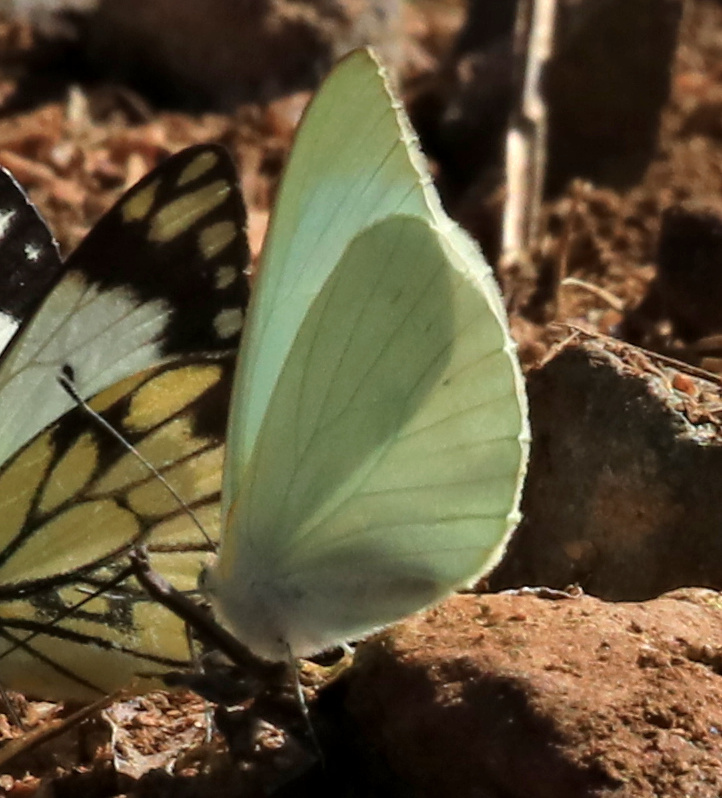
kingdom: Animalia
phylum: Arthropoda
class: Insecta
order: Lepidoptera
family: Pieridae
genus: Catopsilia
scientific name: Catopsilia florella
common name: African migrant
